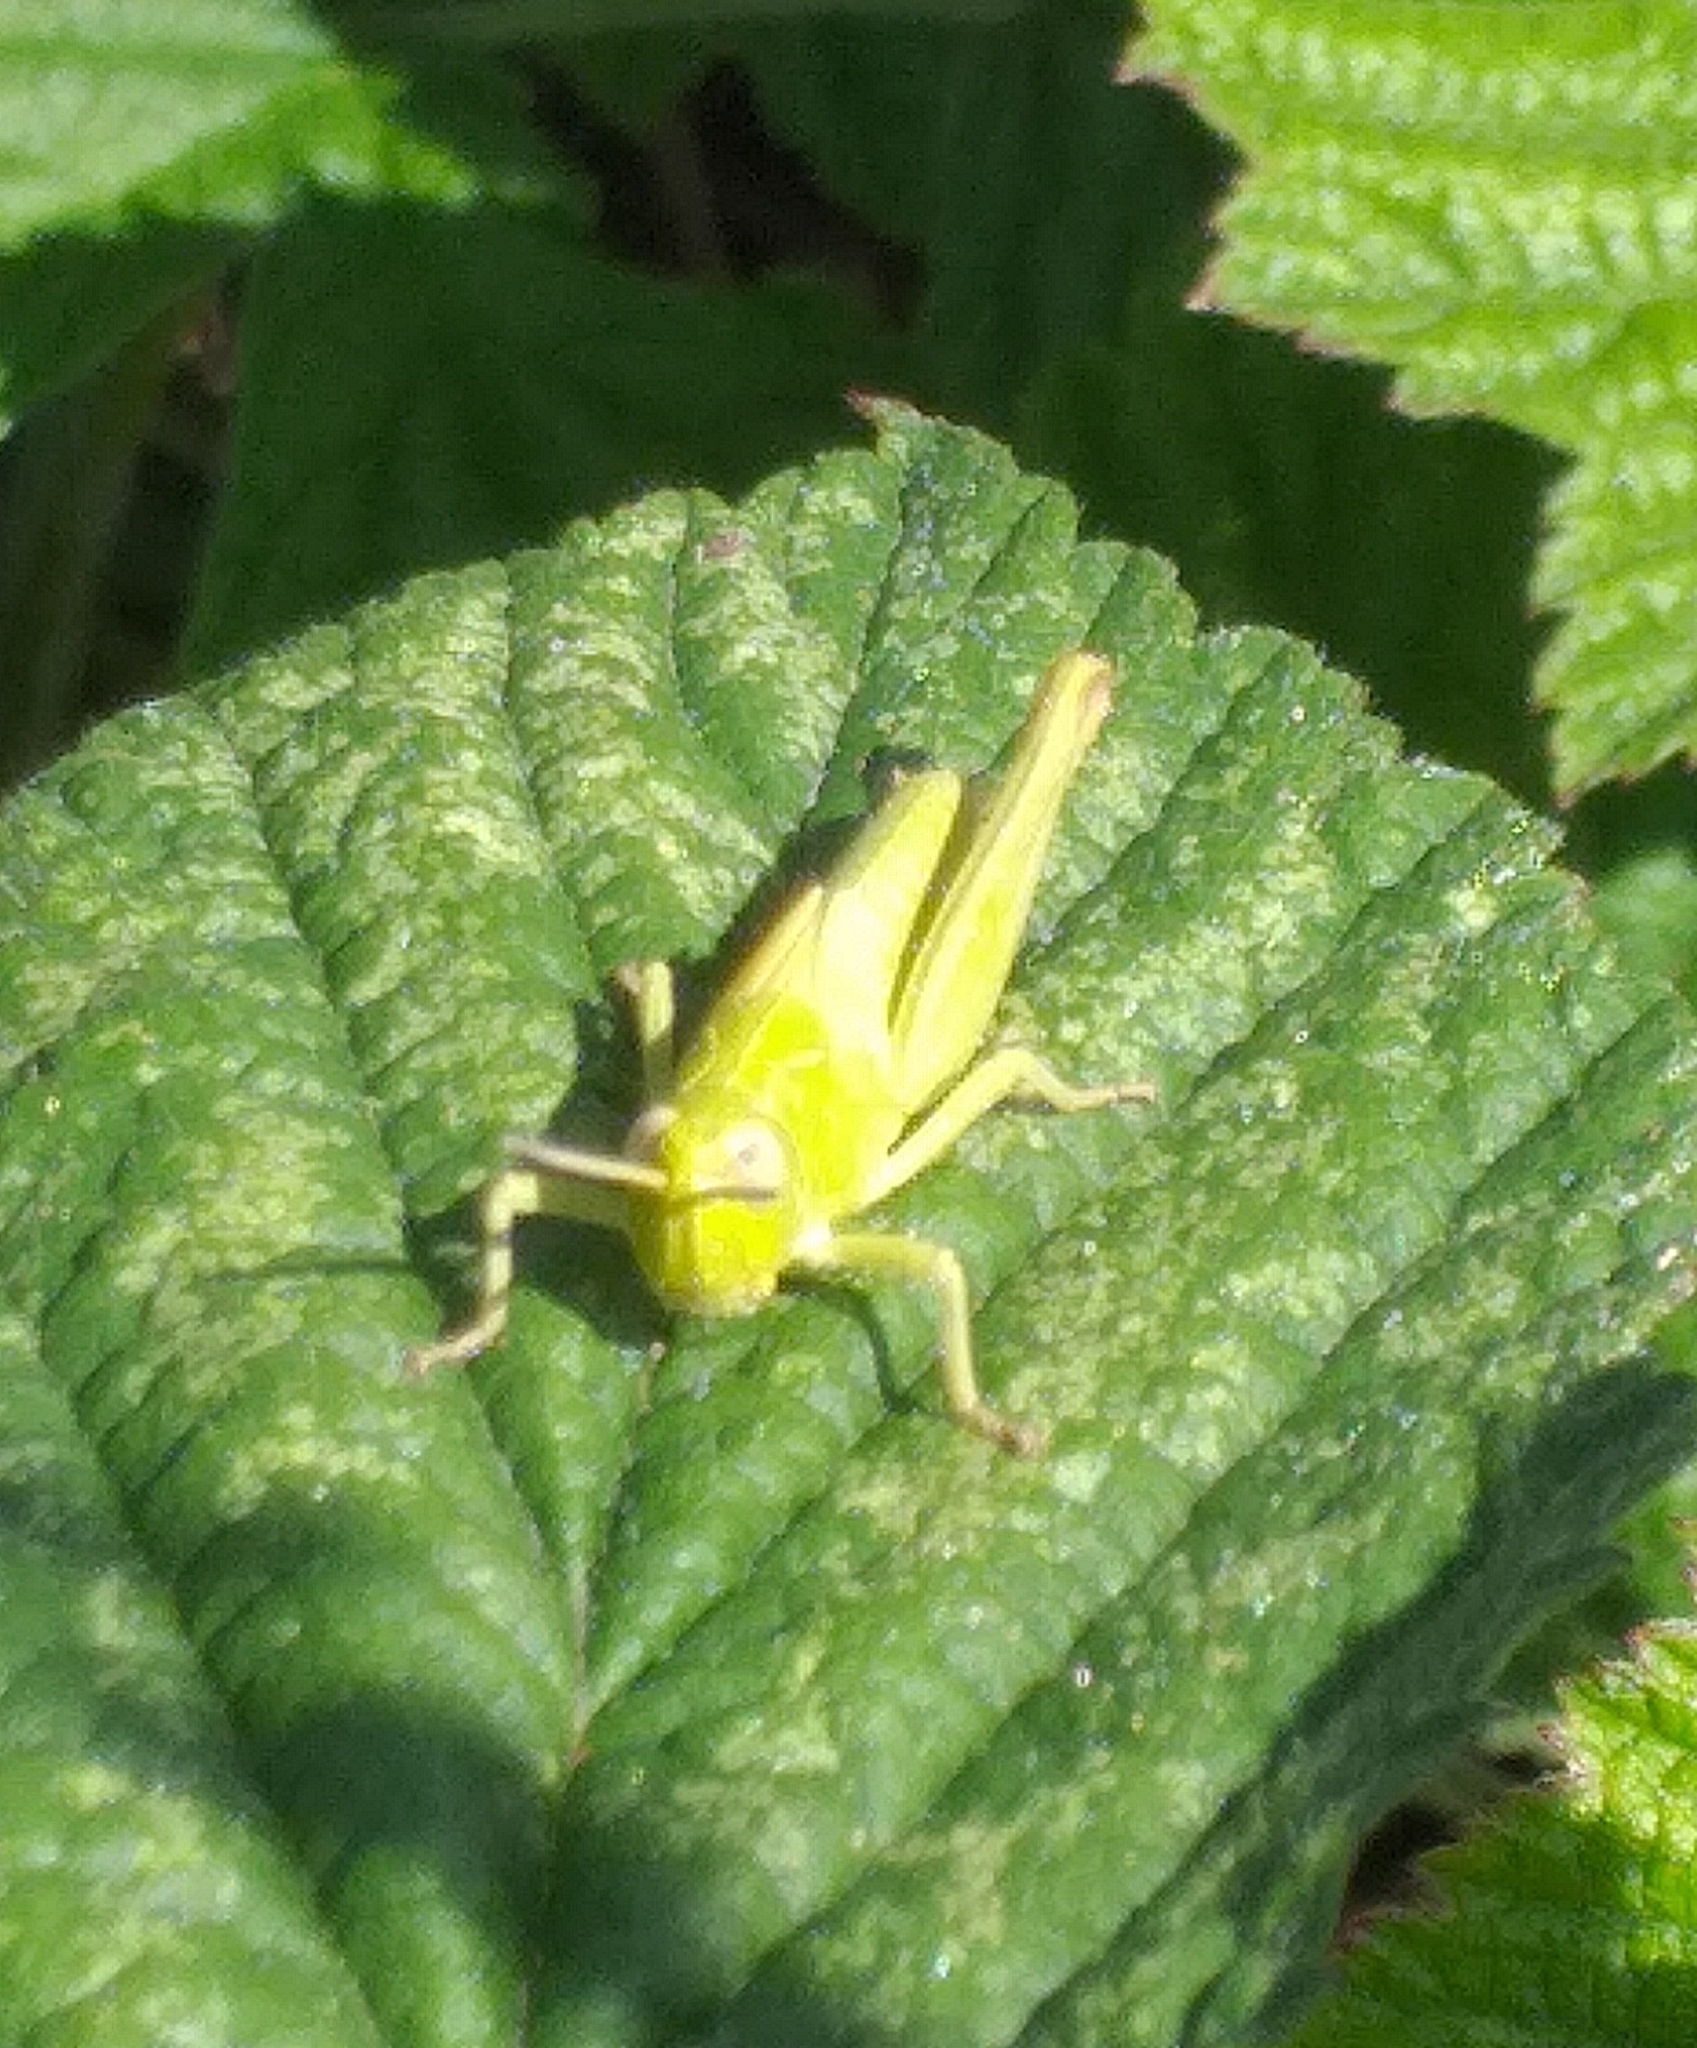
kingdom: Animalia
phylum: Arthropoda
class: Insecta
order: Orthoptera
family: Acrididae
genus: Chorthippus
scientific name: Chorthippus brunneus
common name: Field grasshopper
